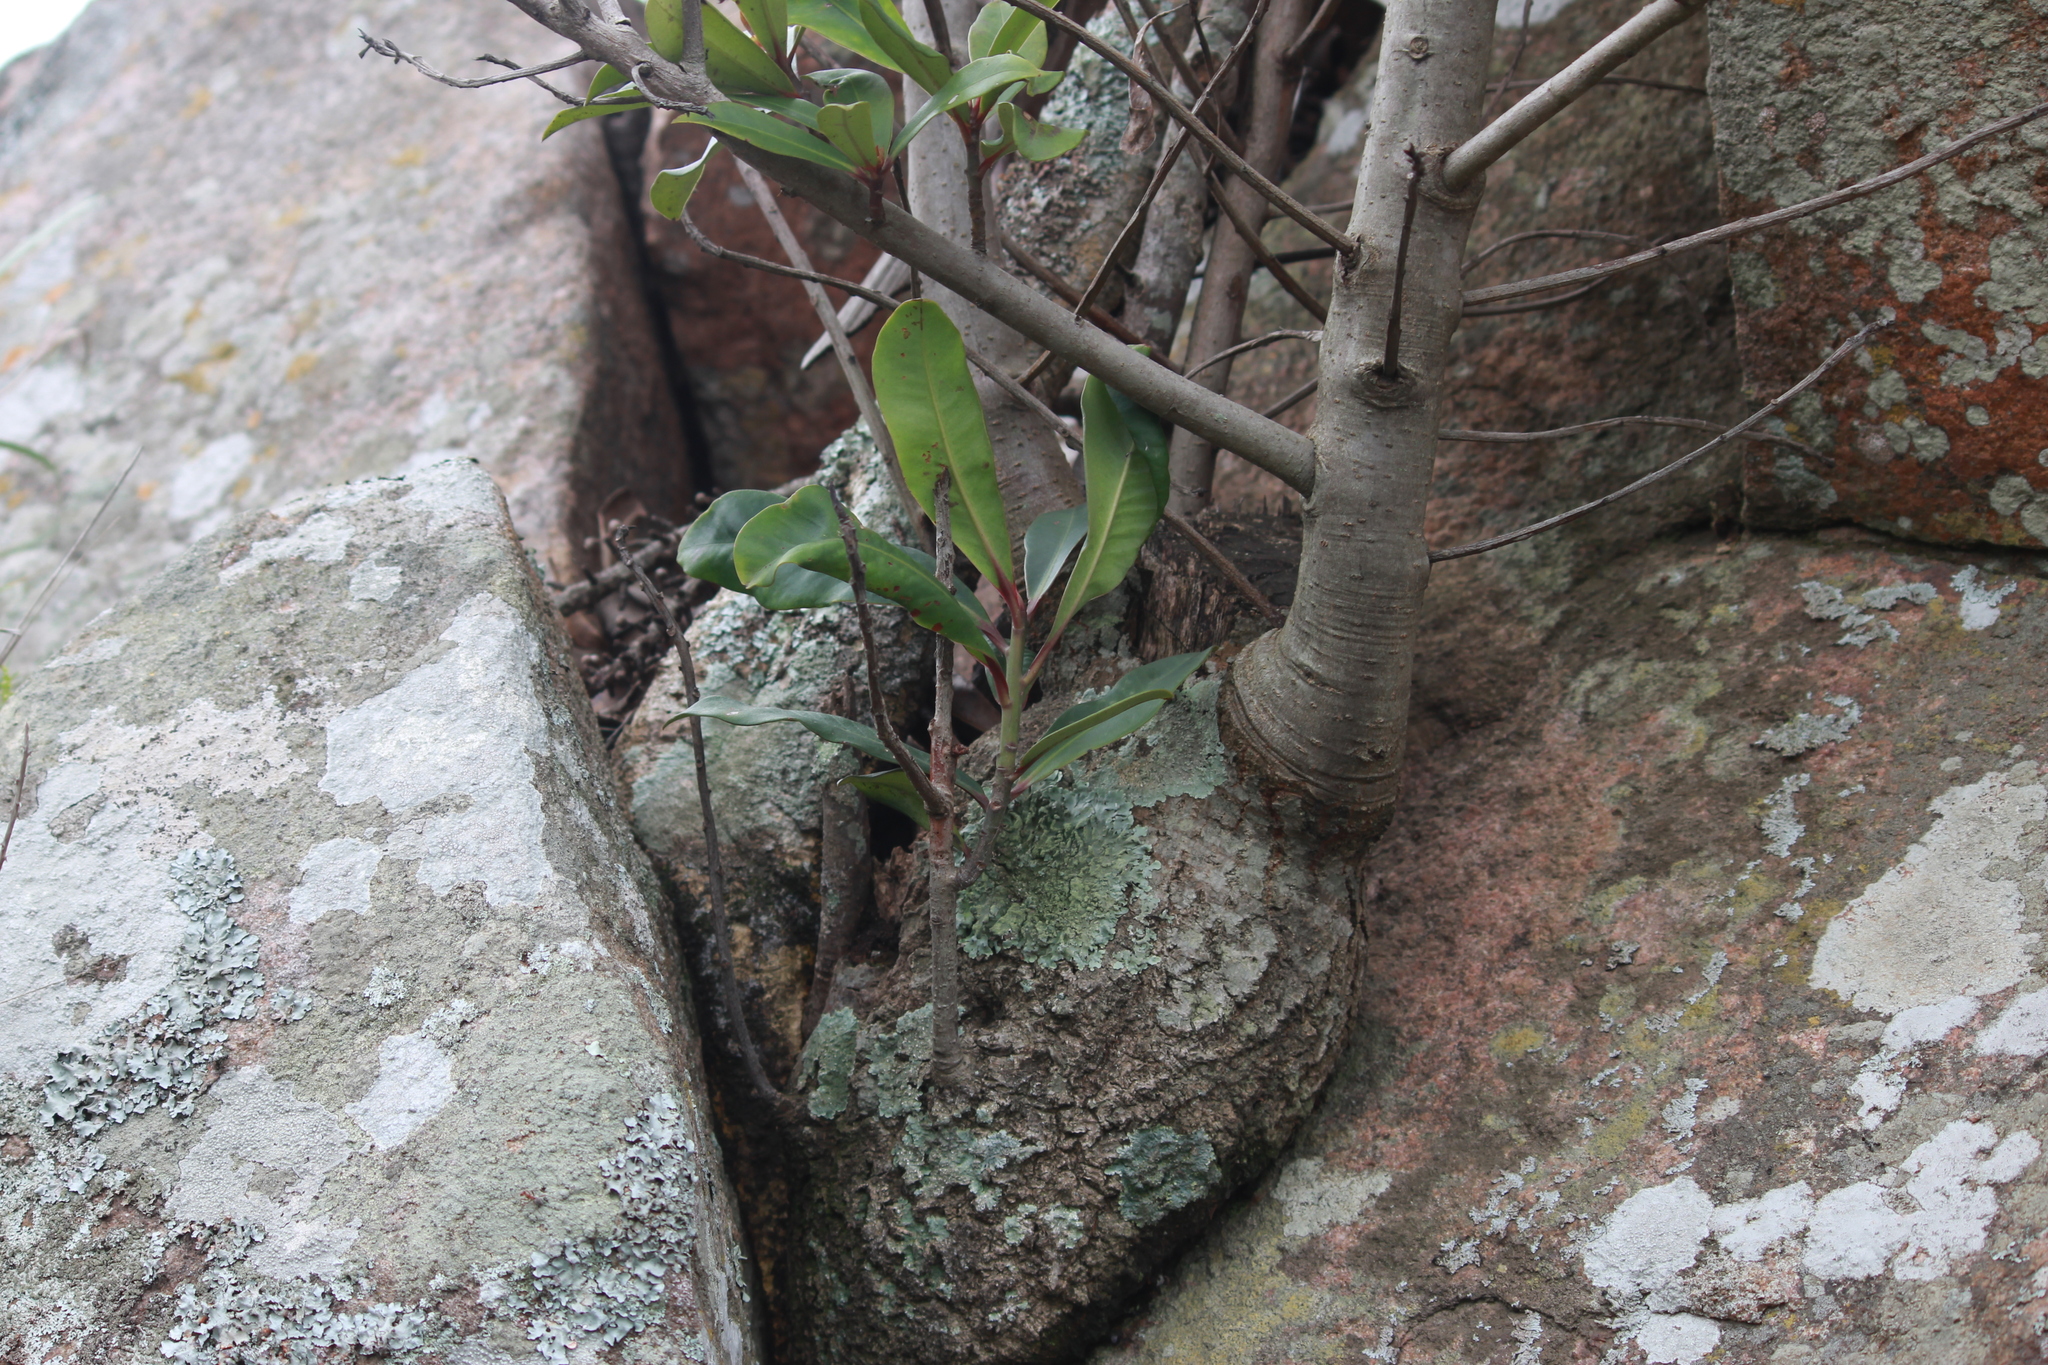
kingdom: Plantae
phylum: Tracheophyta
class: Magnoliopsida
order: Ericales
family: Primulaceae
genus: Myrsine
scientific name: Myrsine melanophloeos
